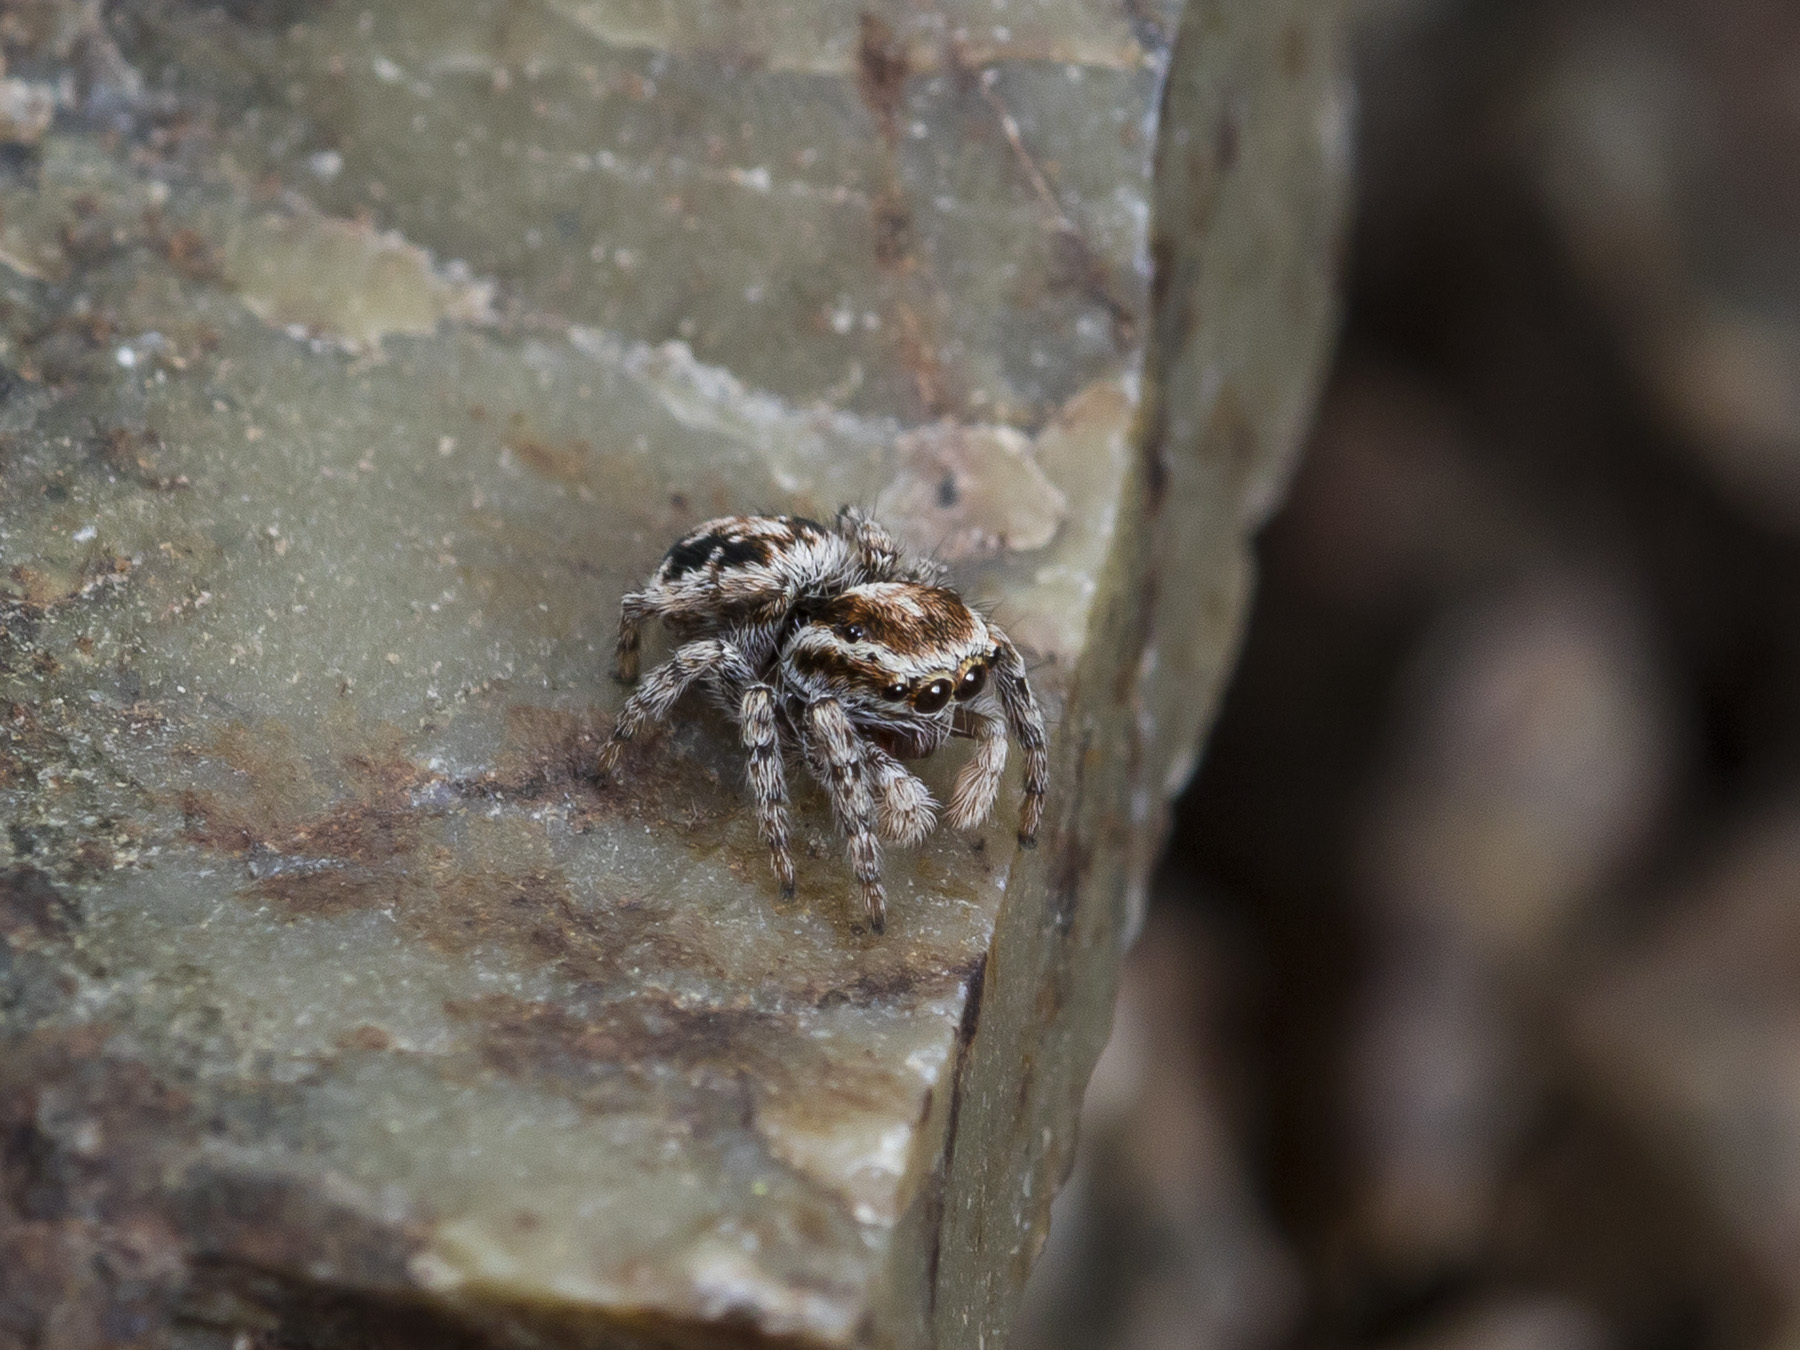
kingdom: Animalia
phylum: Arthropoda
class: Arachnida
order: Araneae
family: Salticidae
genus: Attulus
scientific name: Attulus avocator
